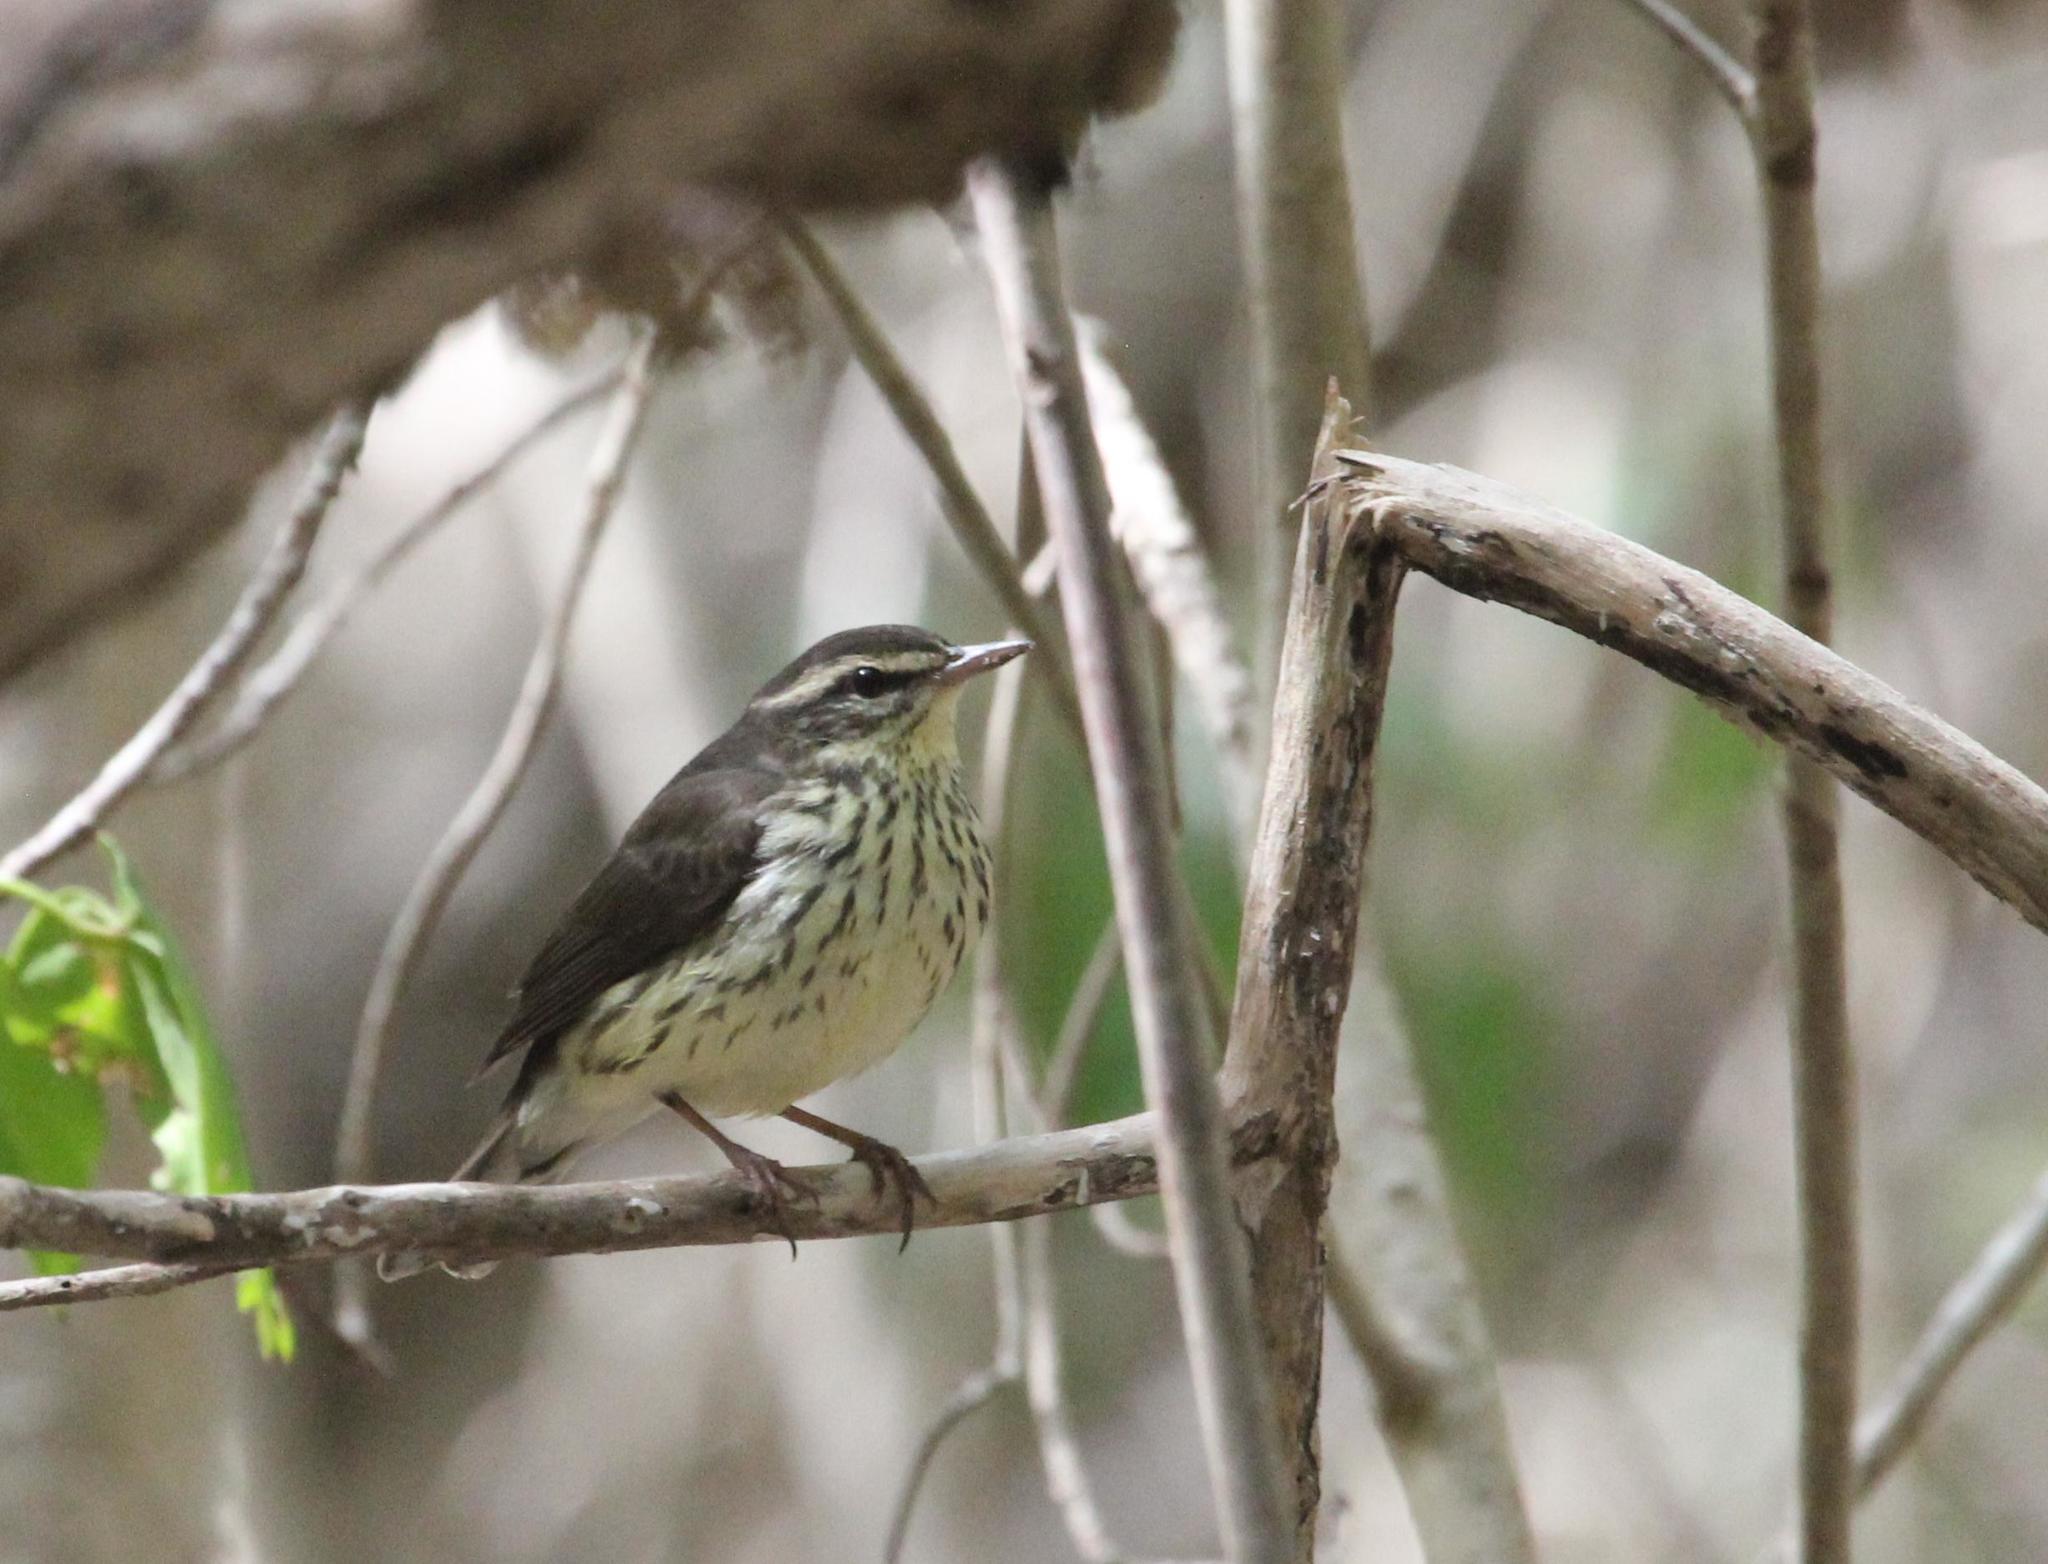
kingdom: Animalia
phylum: Chordata
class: Aves
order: Passeriformes
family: Parulidae
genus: Parkesia
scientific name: Parkesia noveboracensis
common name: Northern waterthrush
